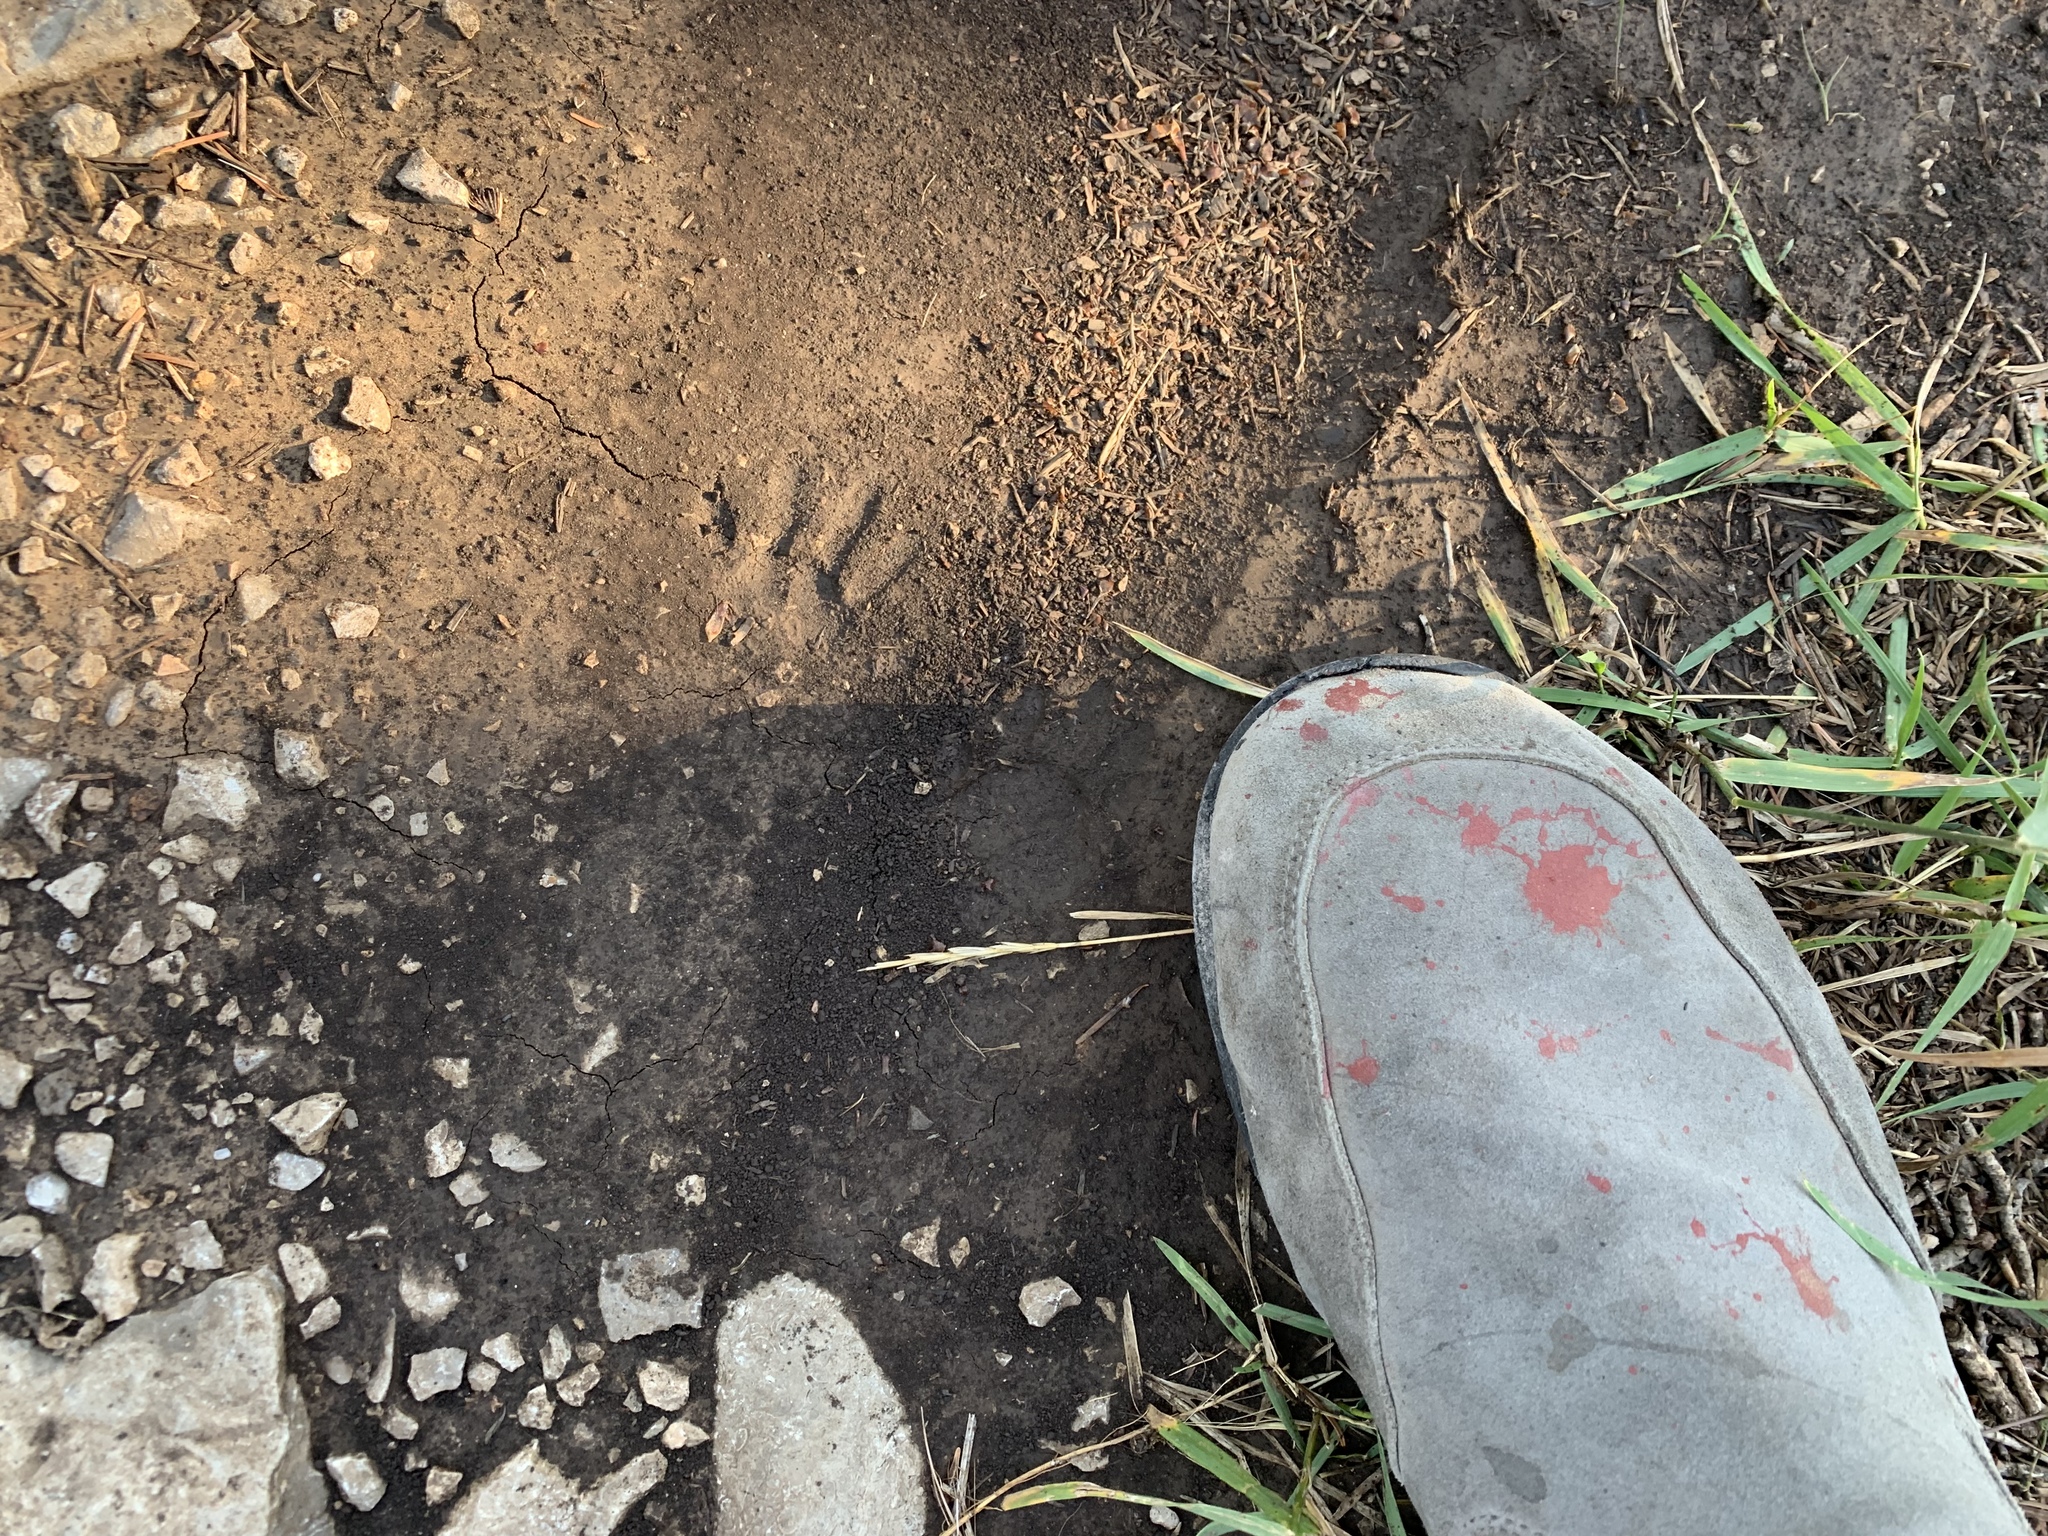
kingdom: Animalia
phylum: Chordata
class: Mammalia
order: Carnivora
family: Procyonidae
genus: Procyon
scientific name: Procyon lotor
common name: Raccoon
